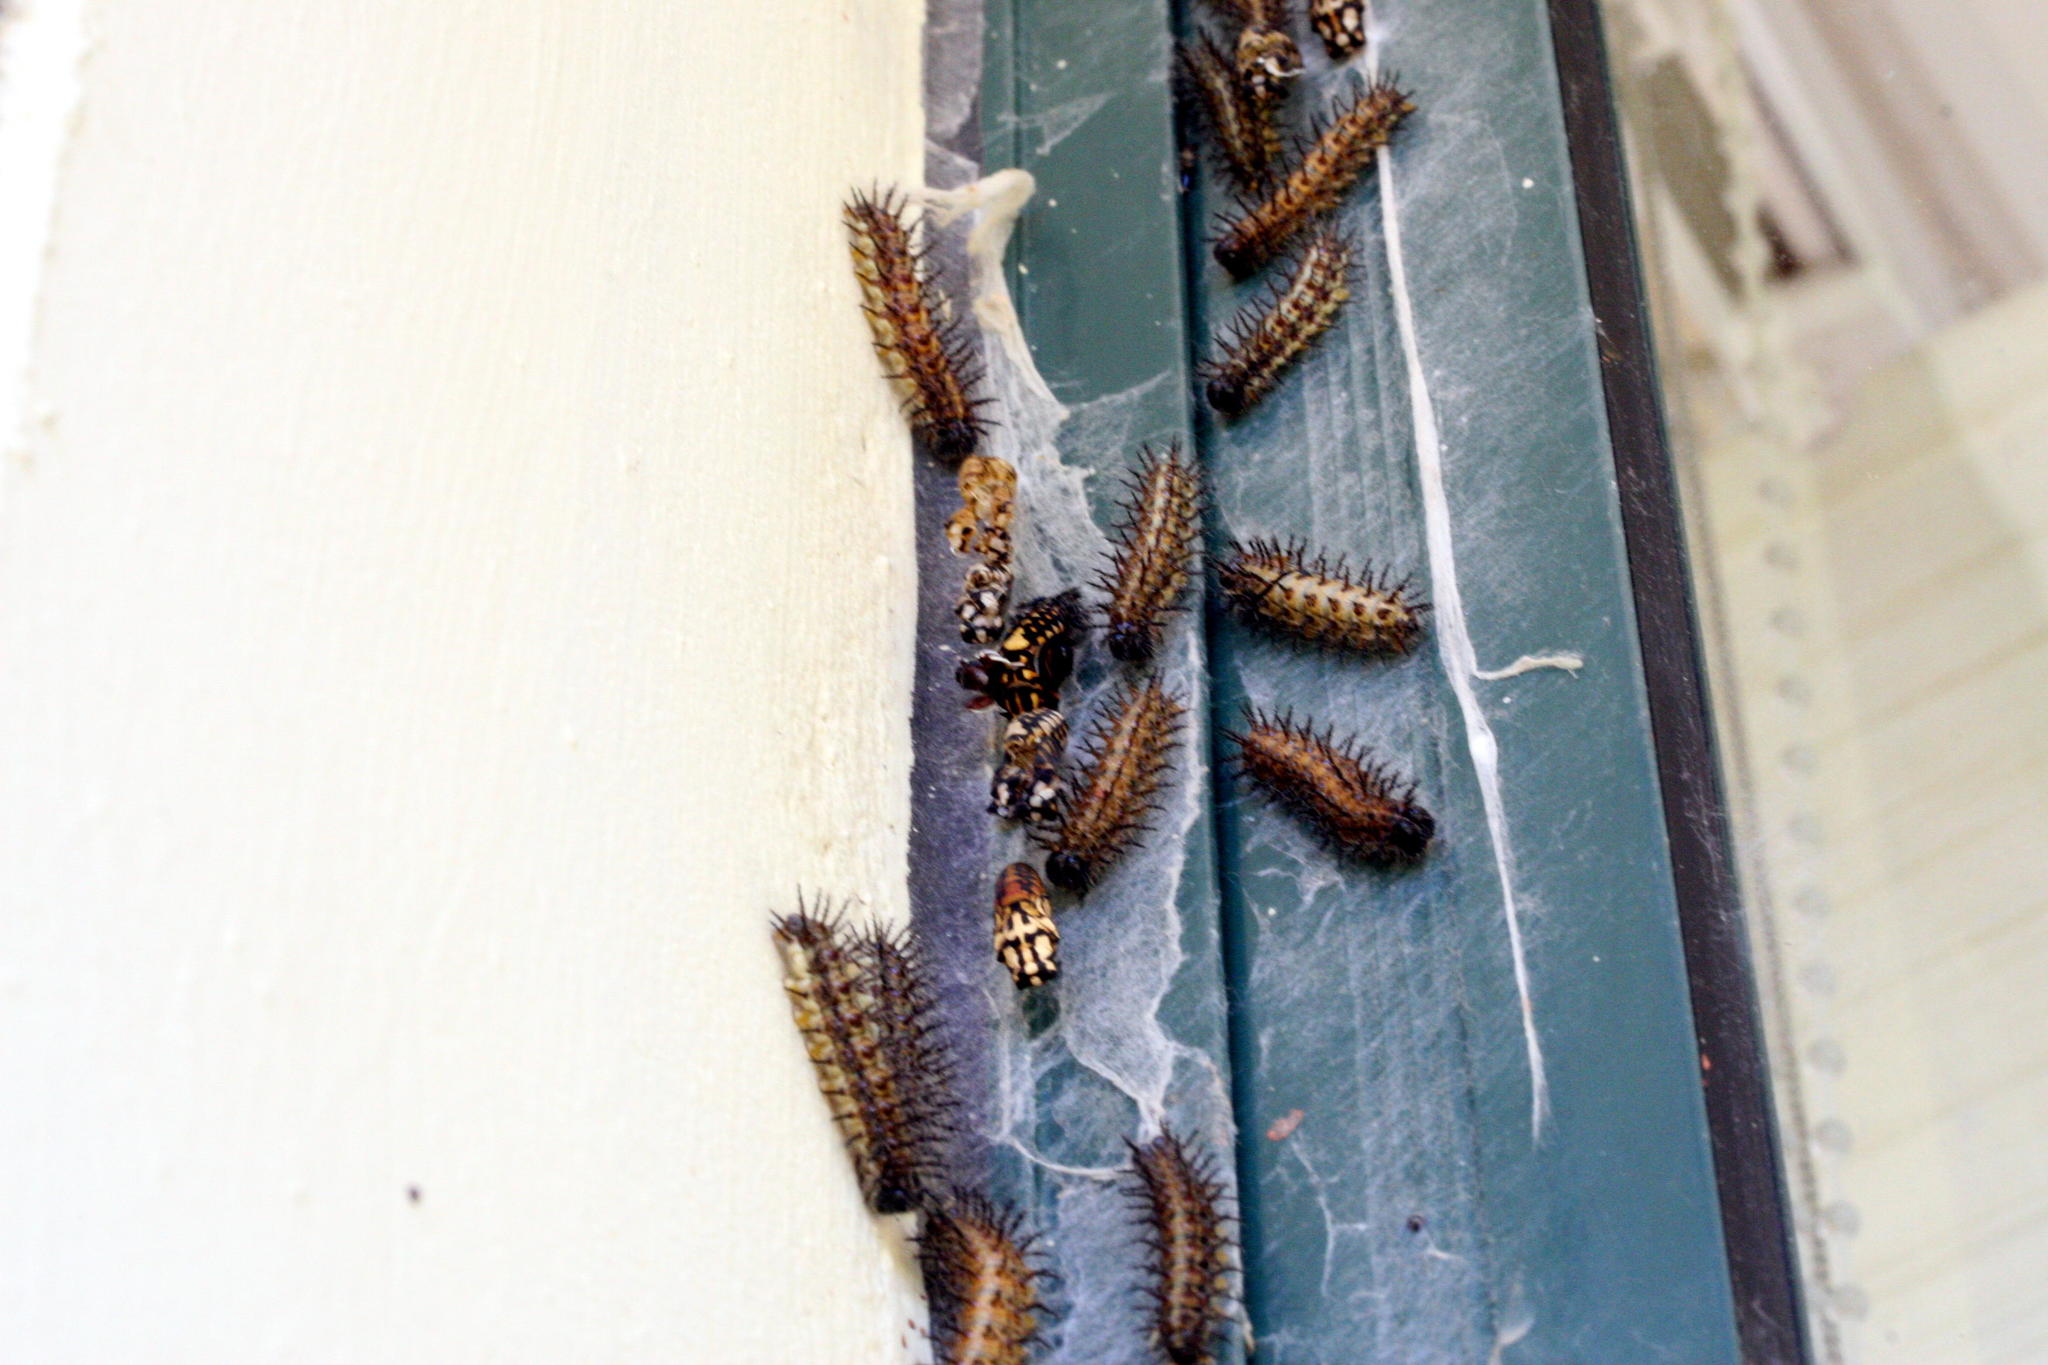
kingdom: Animalia
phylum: Arthropoda
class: Insecta
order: Hymenoptera
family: Chalcididae
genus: Brachymeria
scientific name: Brachymeria kassalensis
